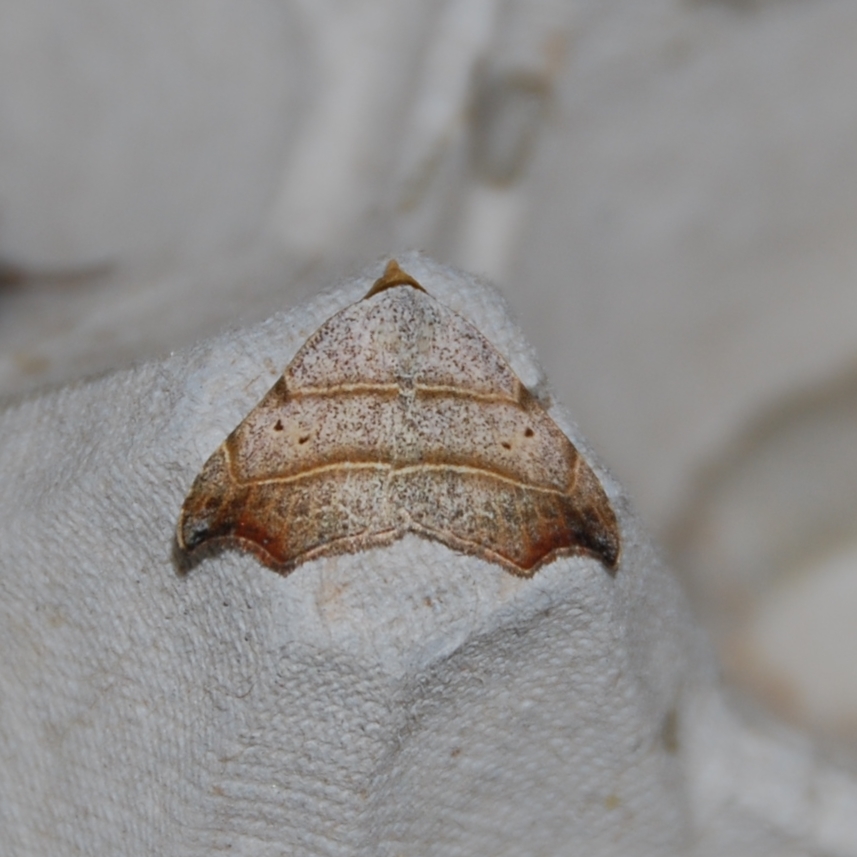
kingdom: Animalia
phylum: Arthropoda
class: Insecta
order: Lepidoptera
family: Erebidae
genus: Laspeyria
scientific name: Laspeyria flexula
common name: Beautiful hook-tip
